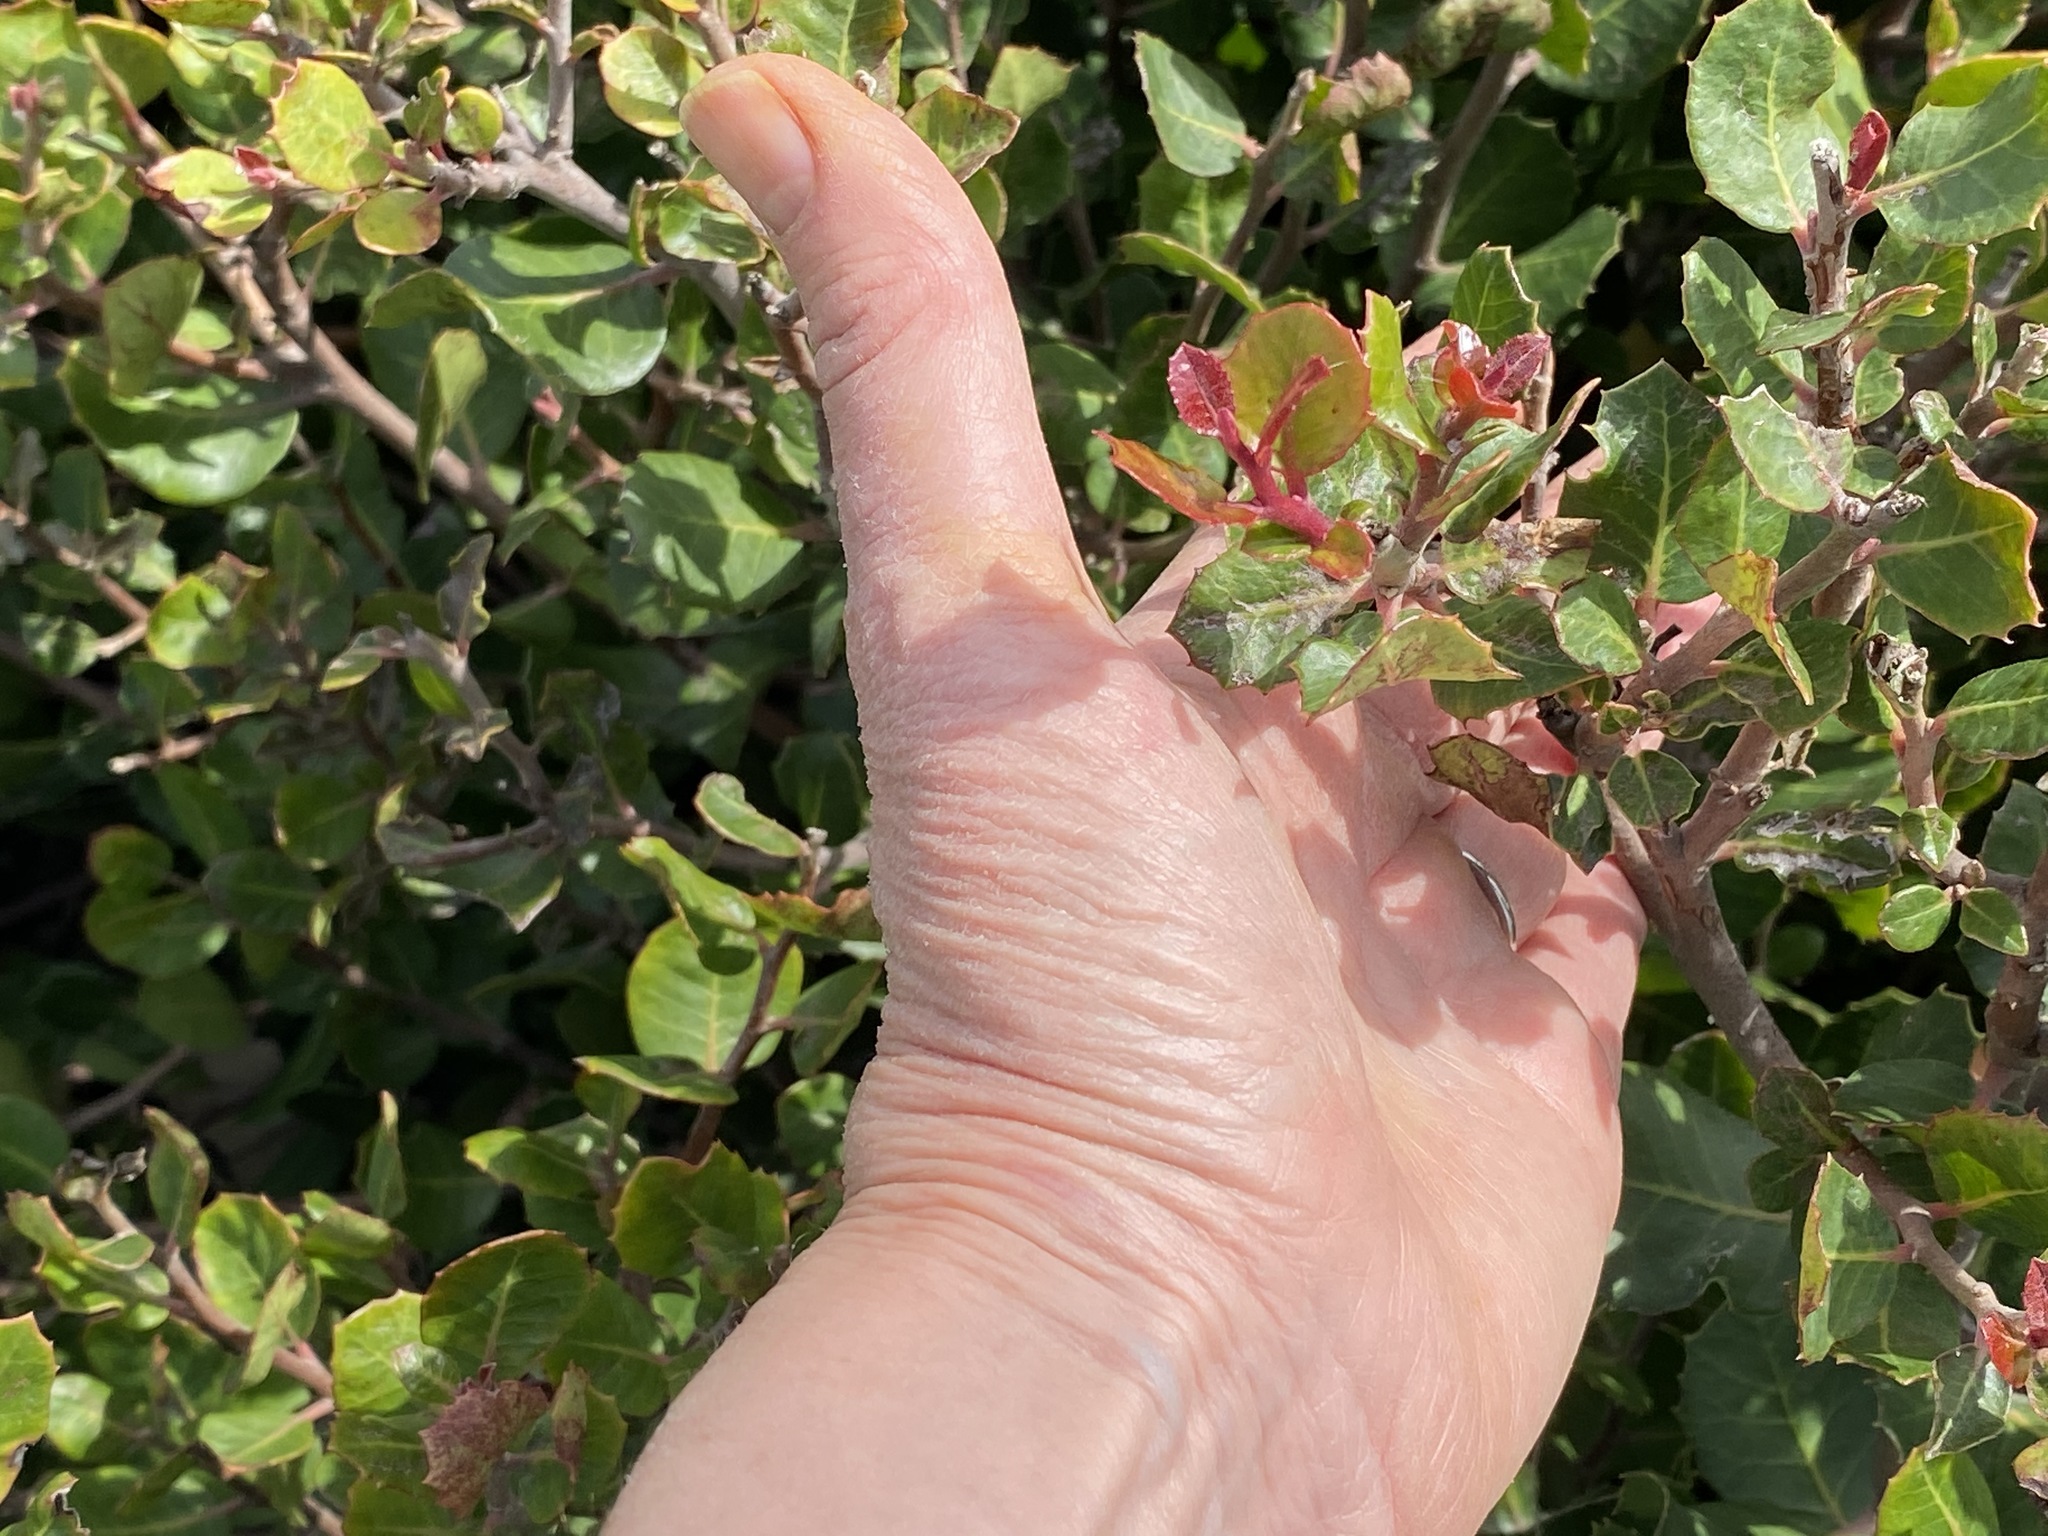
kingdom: Plantae
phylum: Tracheophyta
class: Magnoliopsida
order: Sapindales
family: Anacardiaceae
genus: Rhus
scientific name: Rhus integrifolia
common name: Lemonade sumac
